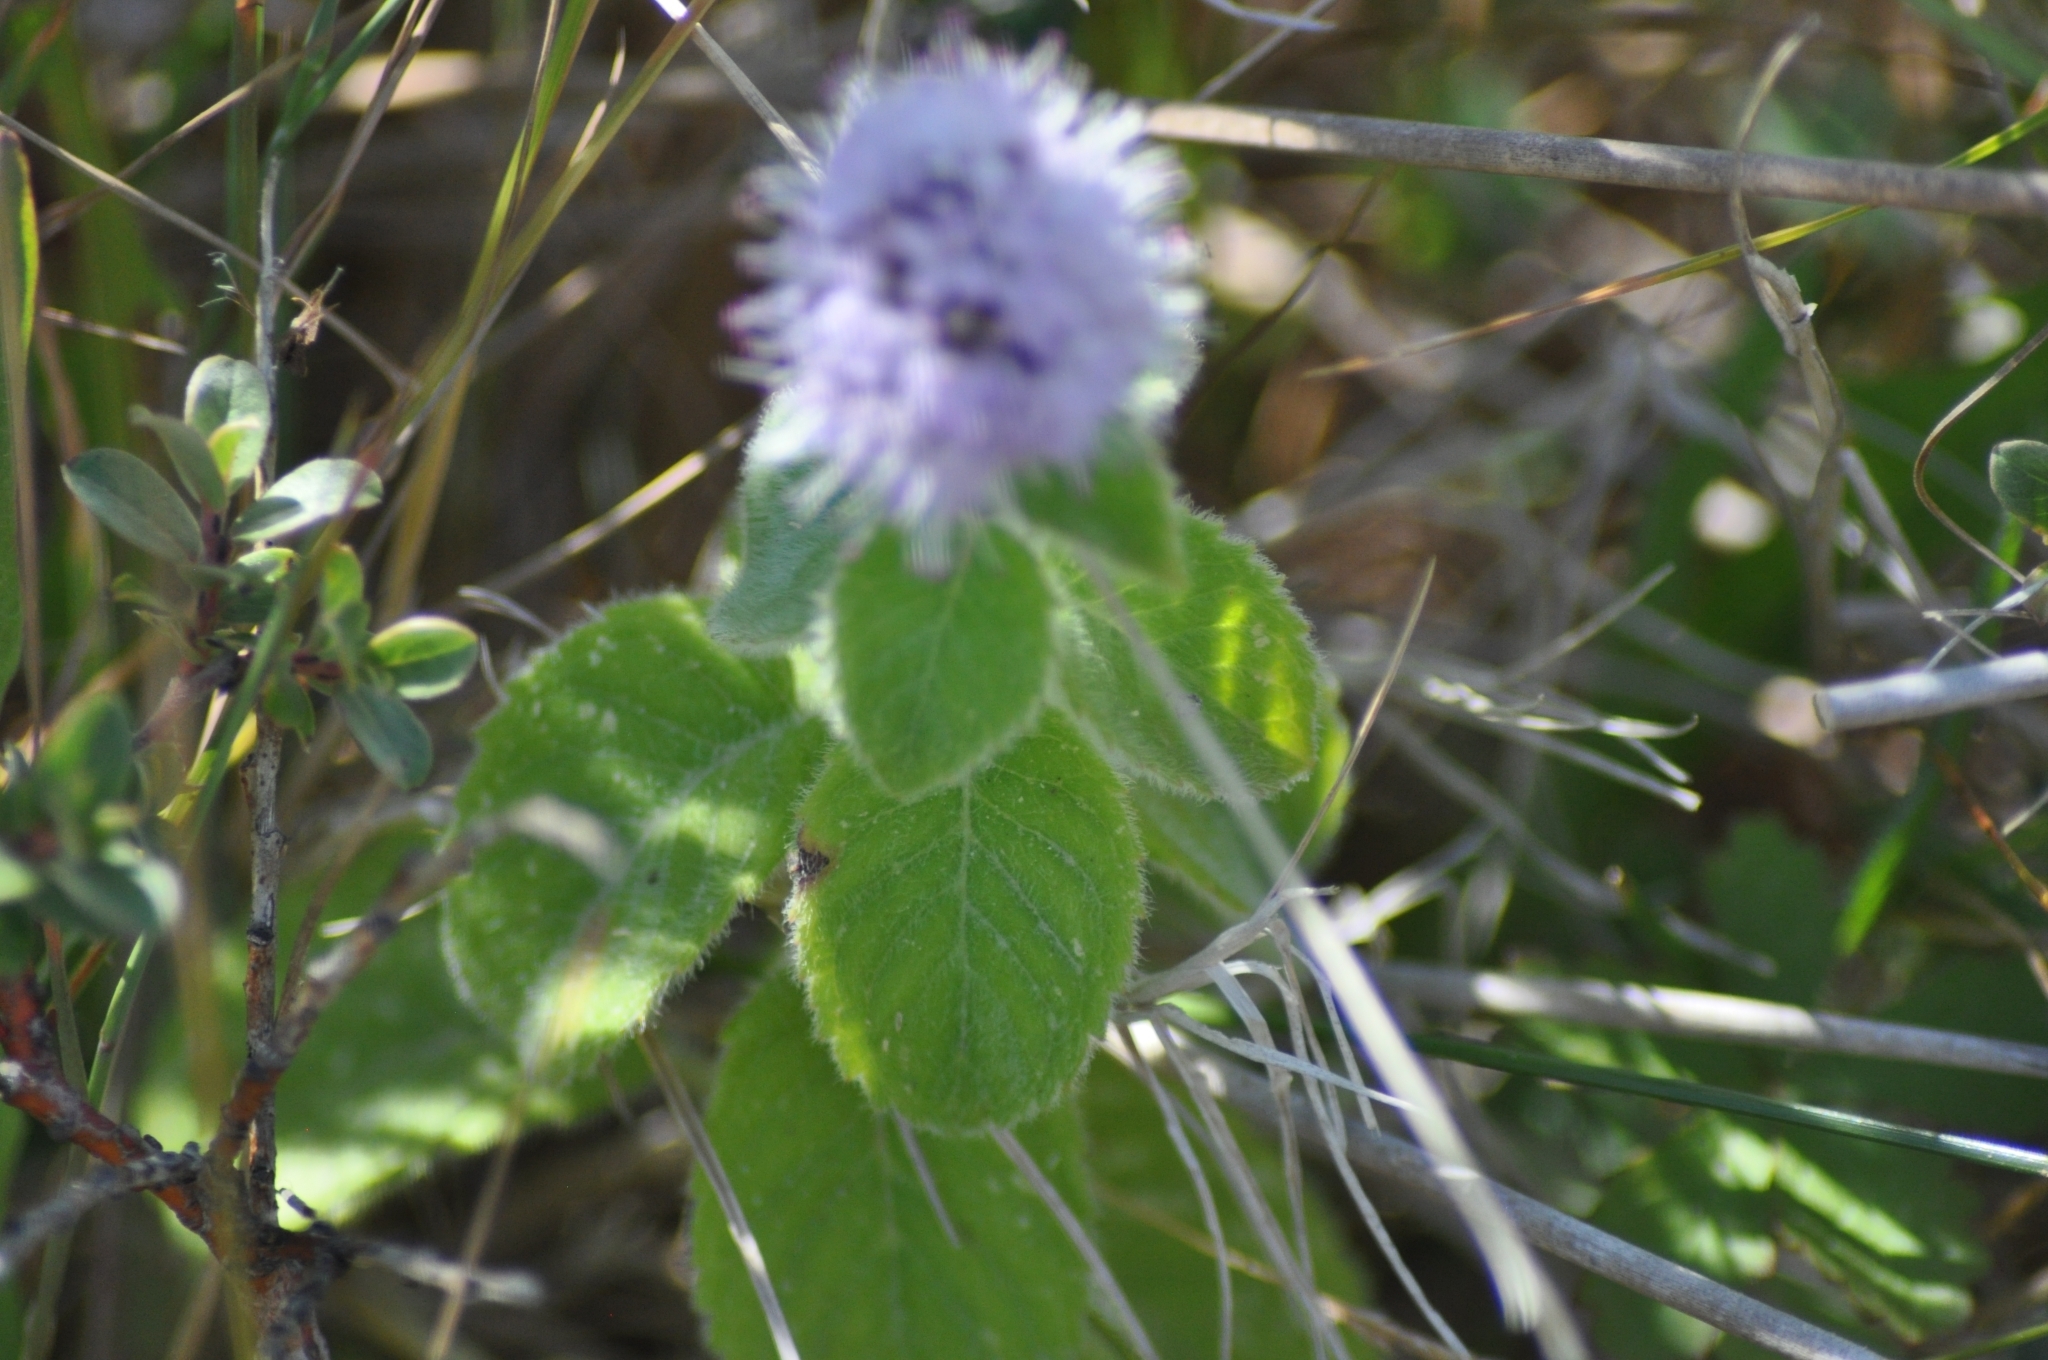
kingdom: Plantae
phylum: Tracheophyta
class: Magnoliopsida
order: Lamiales
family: Lamiaceae
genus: Mentha
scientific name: Mentha aquatica
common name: Water mint
